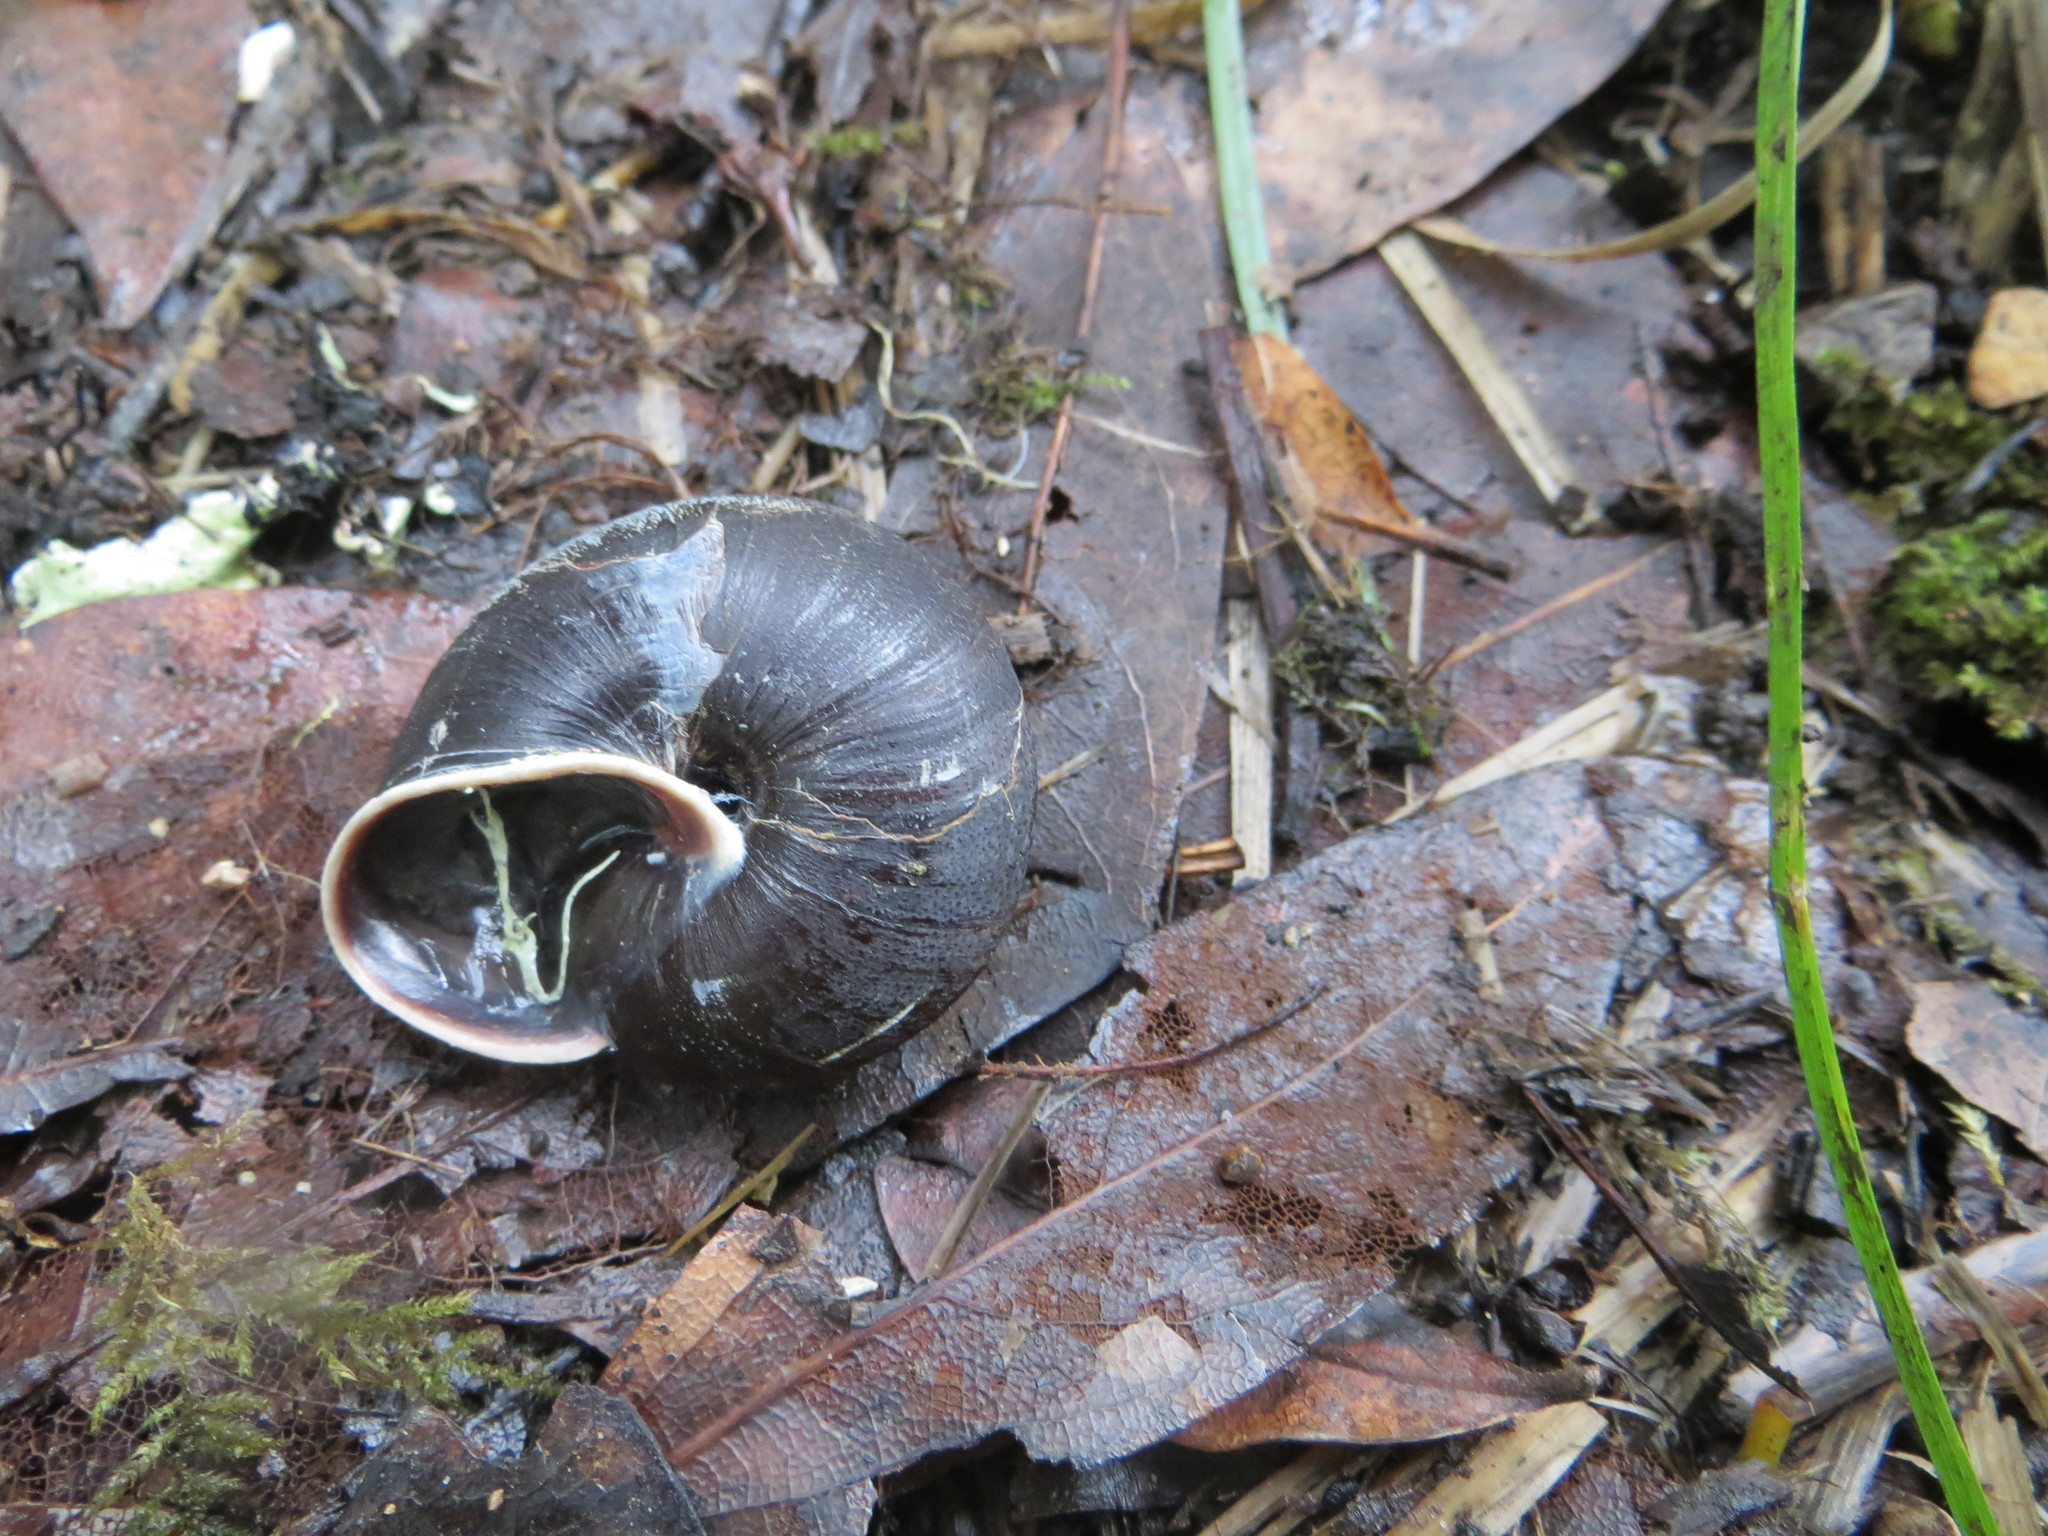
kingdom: Animalia
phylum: Mollusca
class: Gastropoda
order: Stylommatophora
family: Xanthonychidae
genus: Monadenia
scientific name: Monadenia infumata
